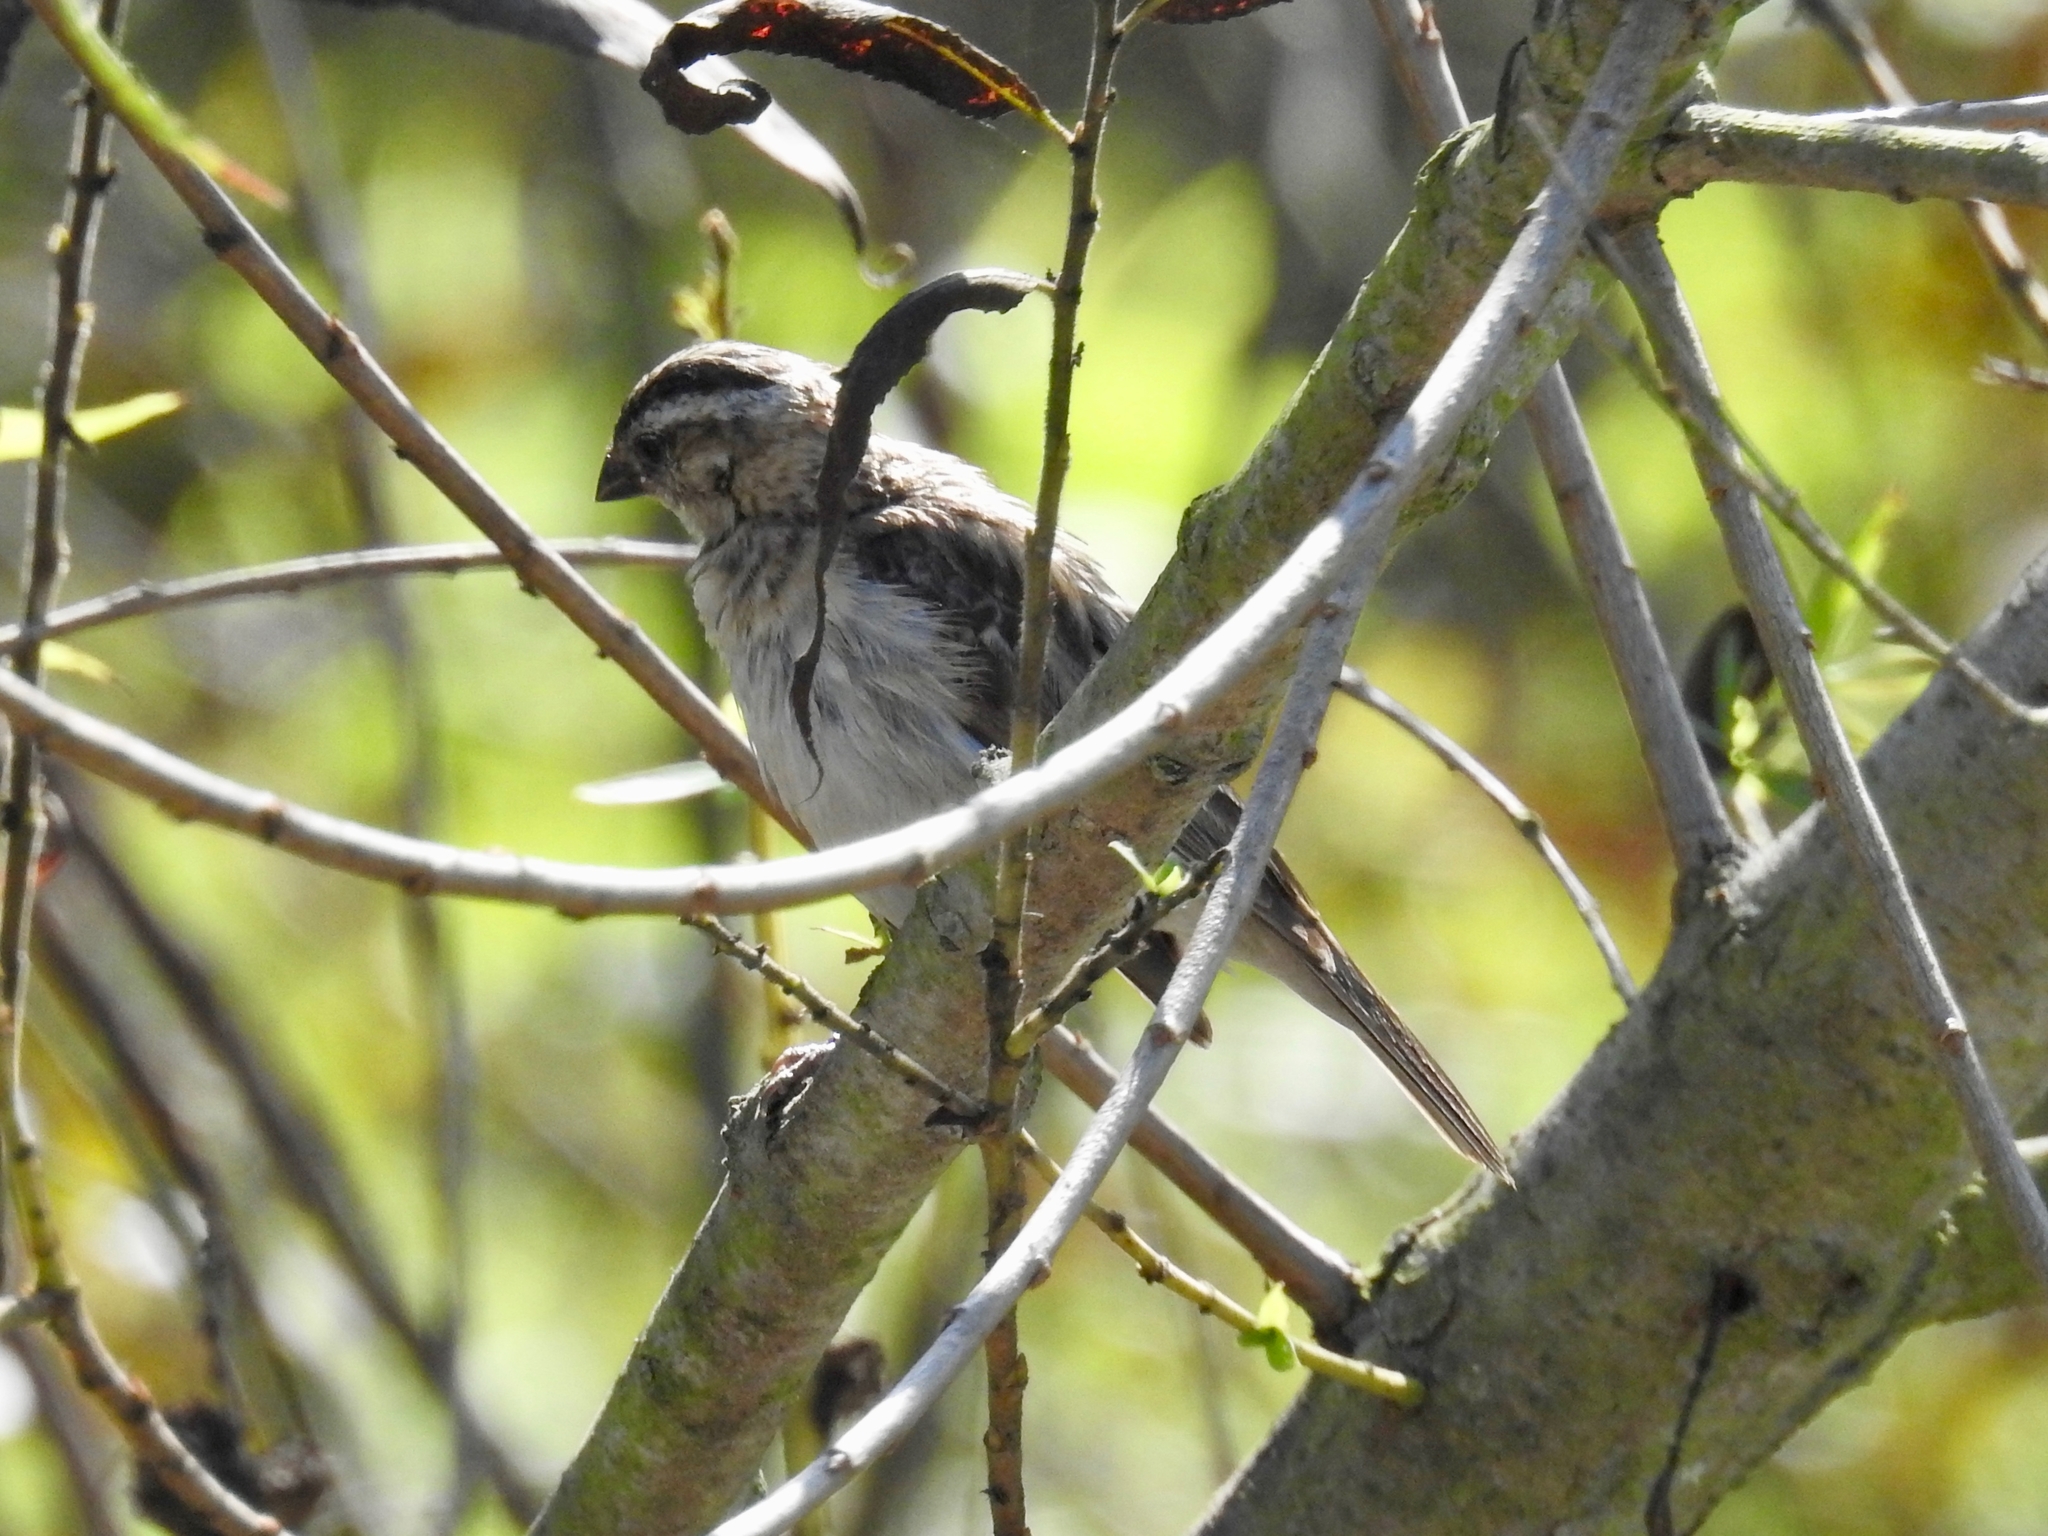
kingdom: Animalia
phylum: Chordata
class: Aves
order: Passeriformes
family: Viduidae
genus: Vidua
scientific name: Vidua macroura
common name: Pin-tailed whydah
